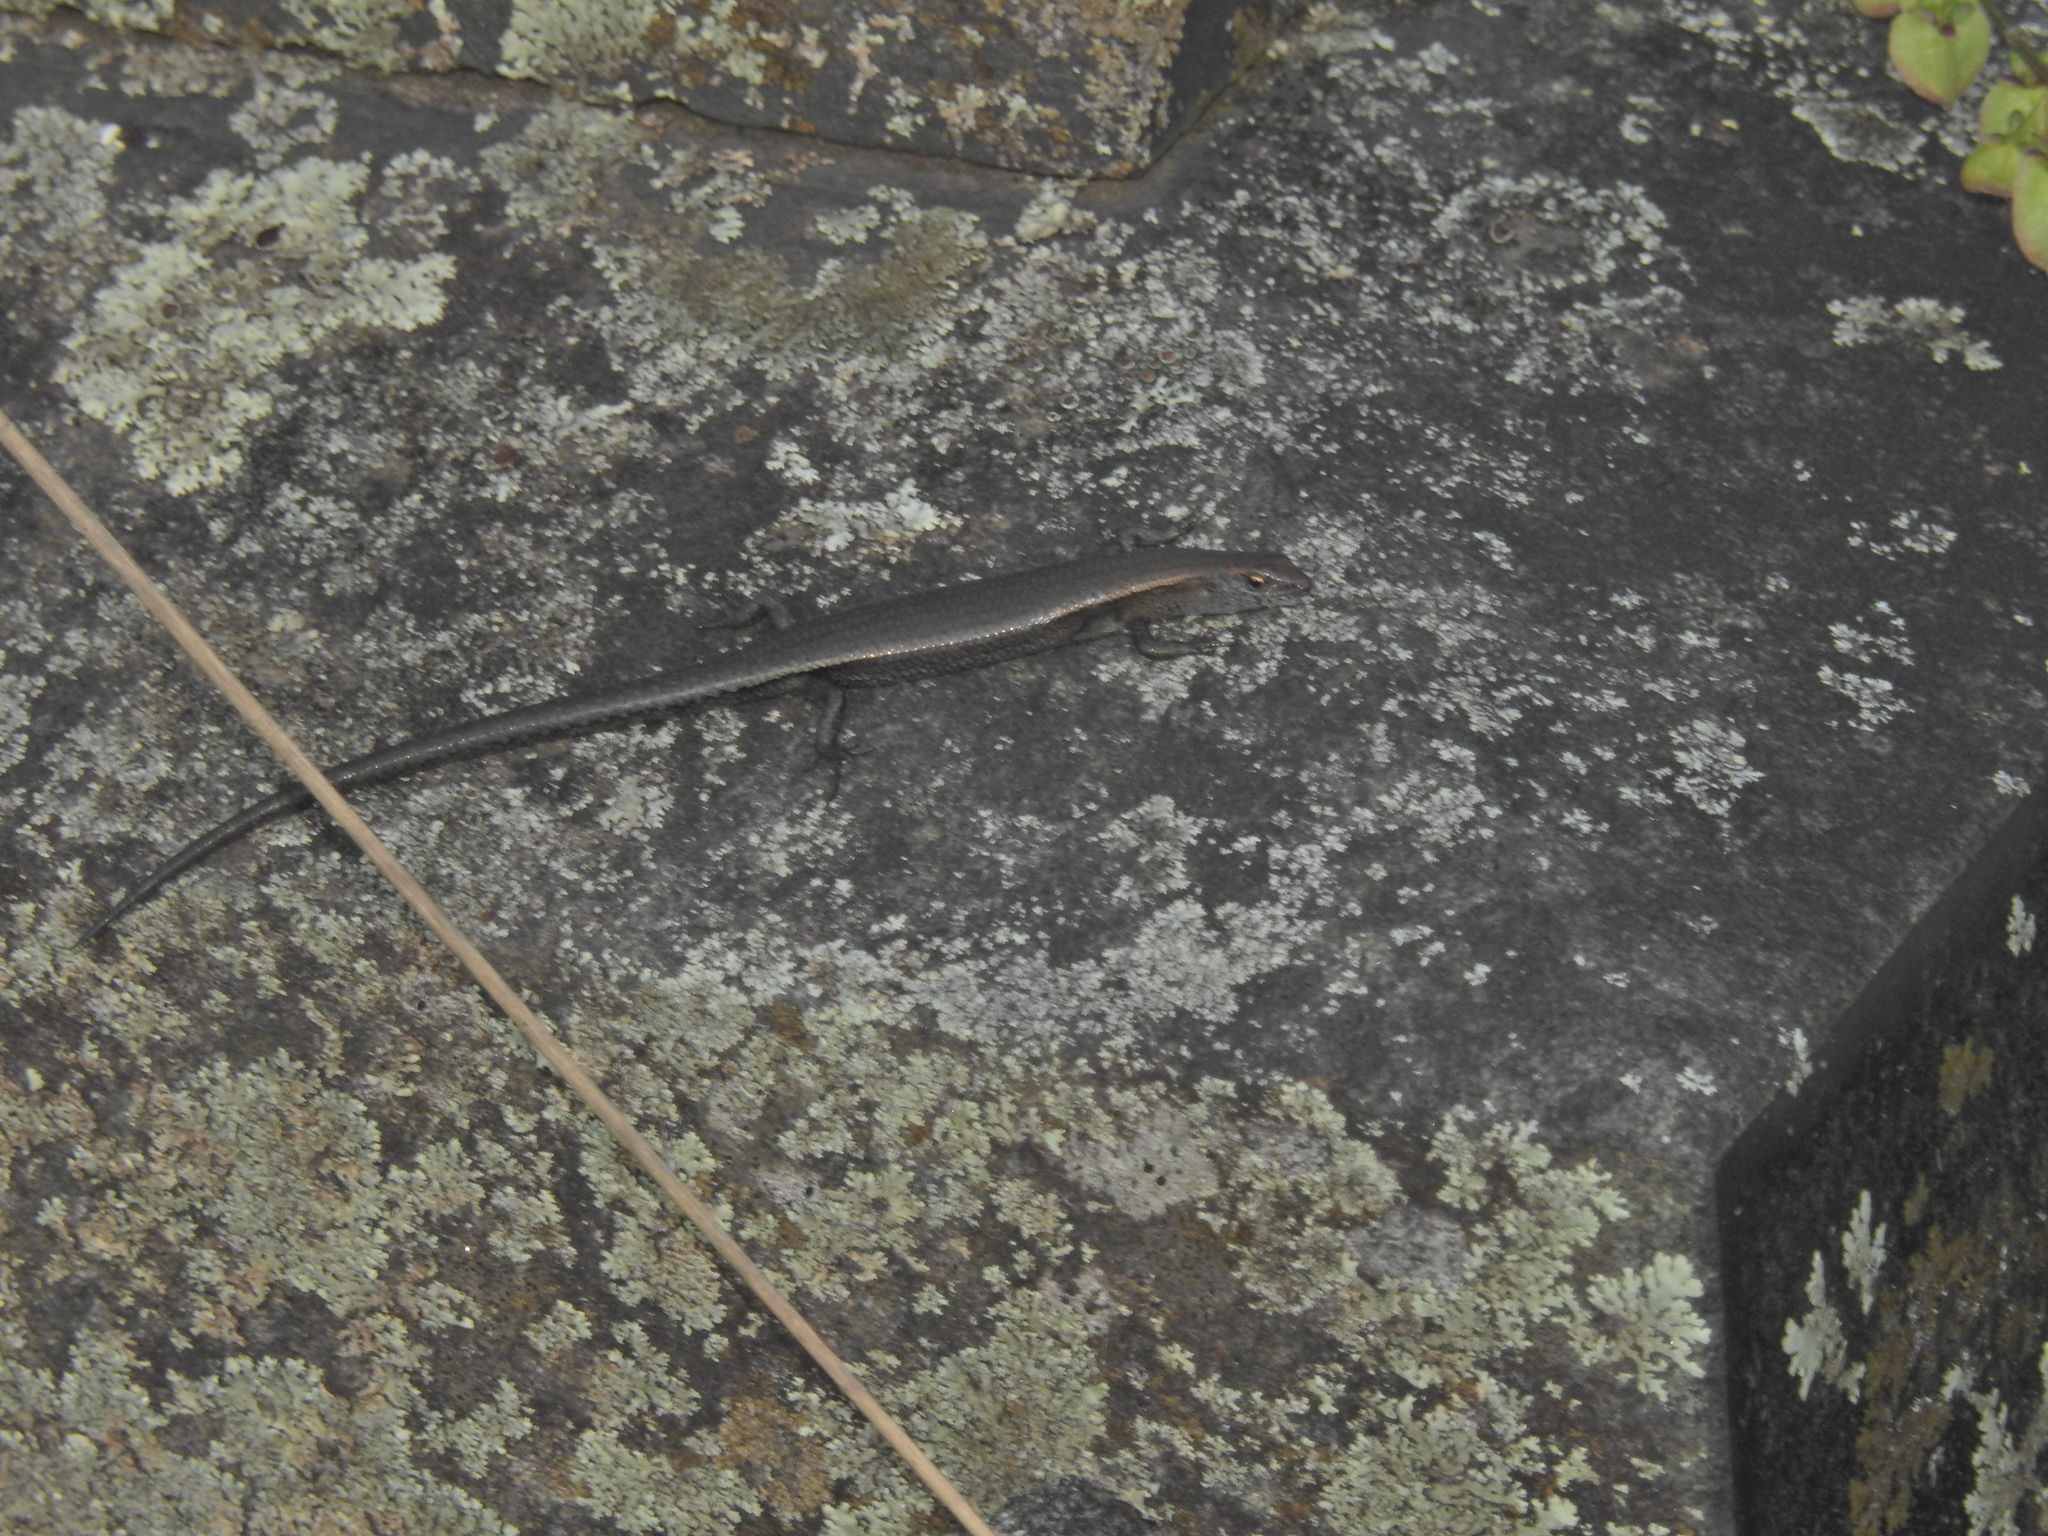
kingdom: Animalia
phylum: Chordata
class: Squamata
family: Scincidae
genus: Lampropholis
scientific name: Lampropholis delicata
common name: Plague skink
